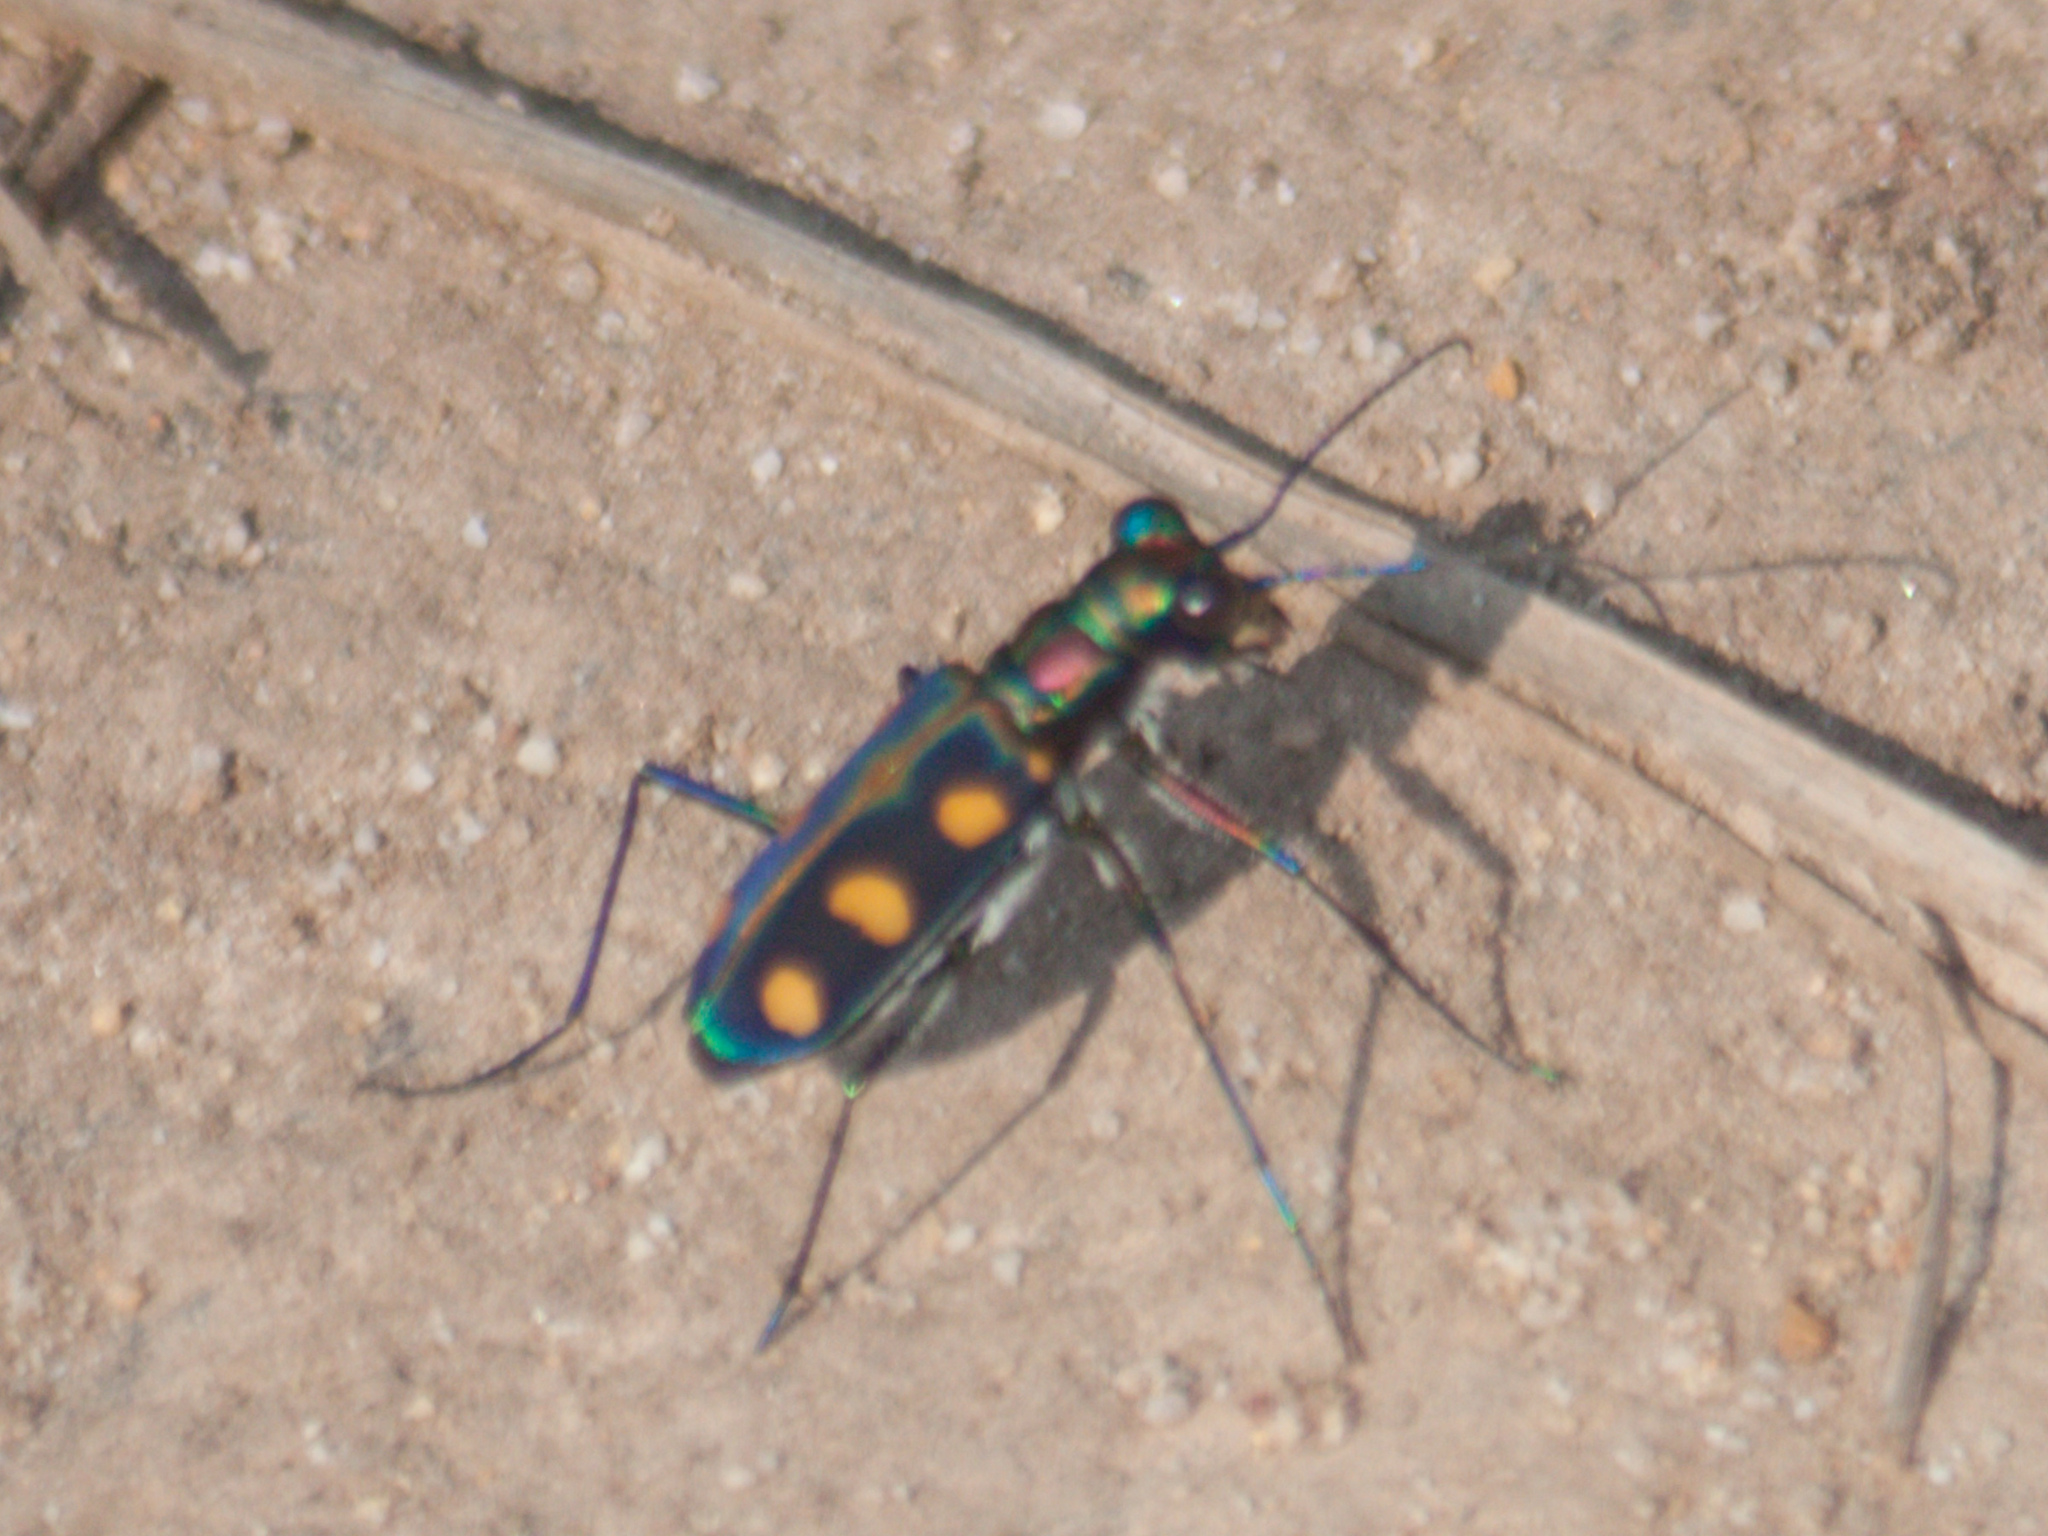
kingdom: Animalia
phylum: Arthropoda
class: Insecta
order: Coleoptera
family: Carabidae
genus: Cicindela
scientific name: Cicindela juxtata
